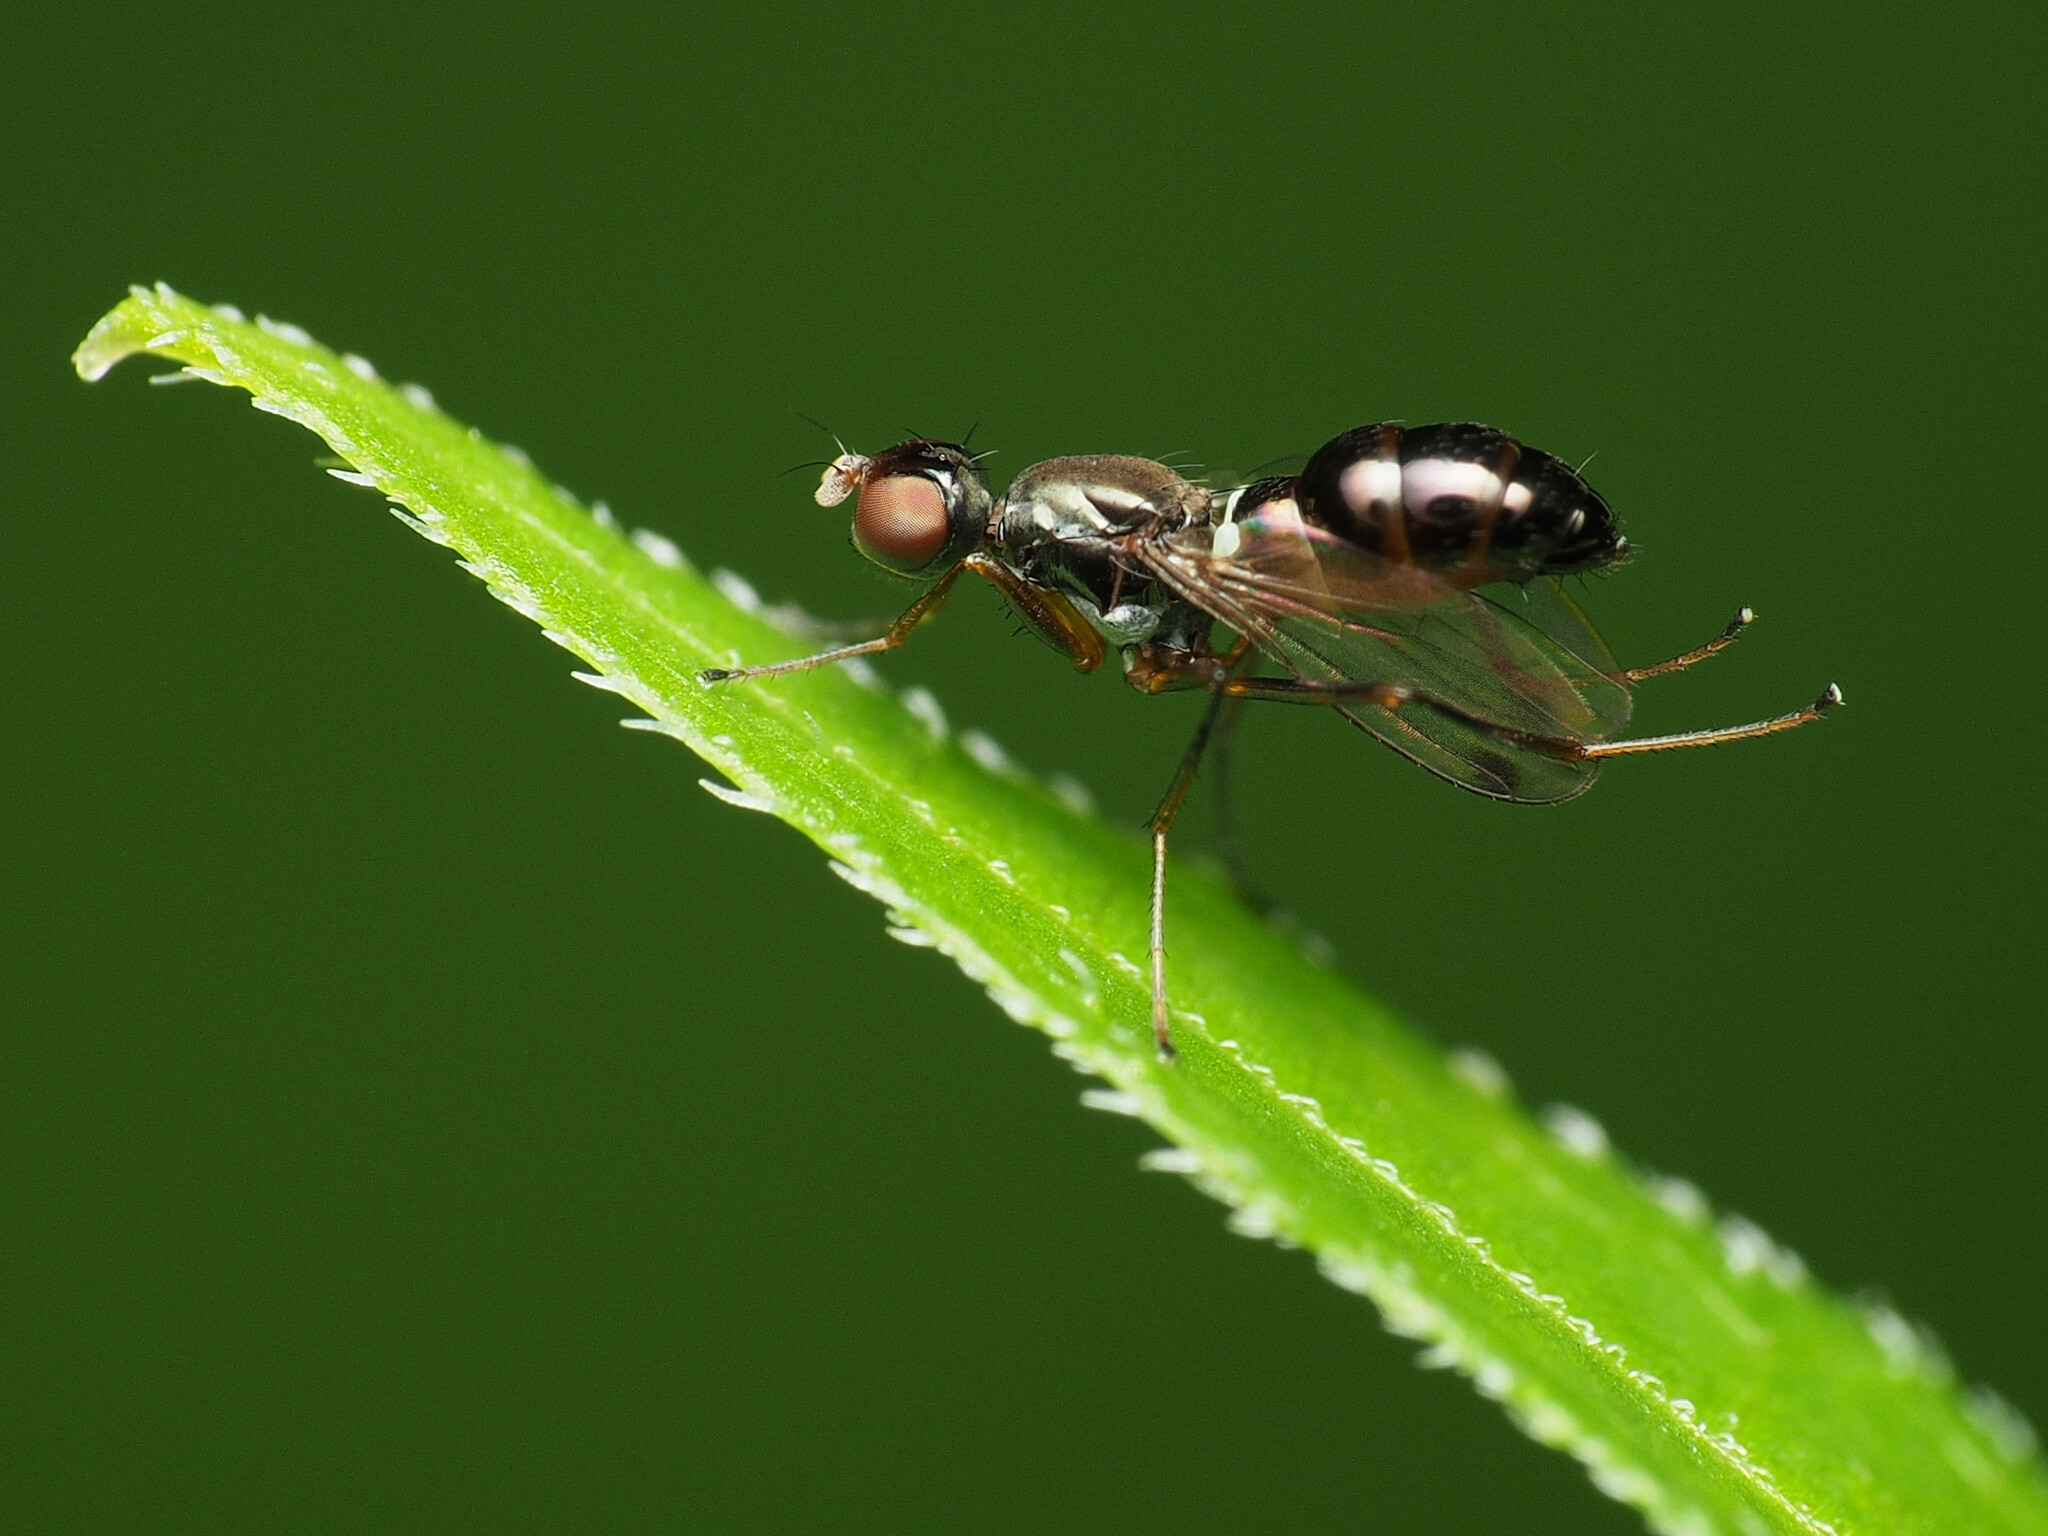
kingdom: Animalia
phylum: Arthropoda
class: Insecta
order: Diptera
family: Sepsidae
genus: Sepsis
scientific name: Sepsis punctum
